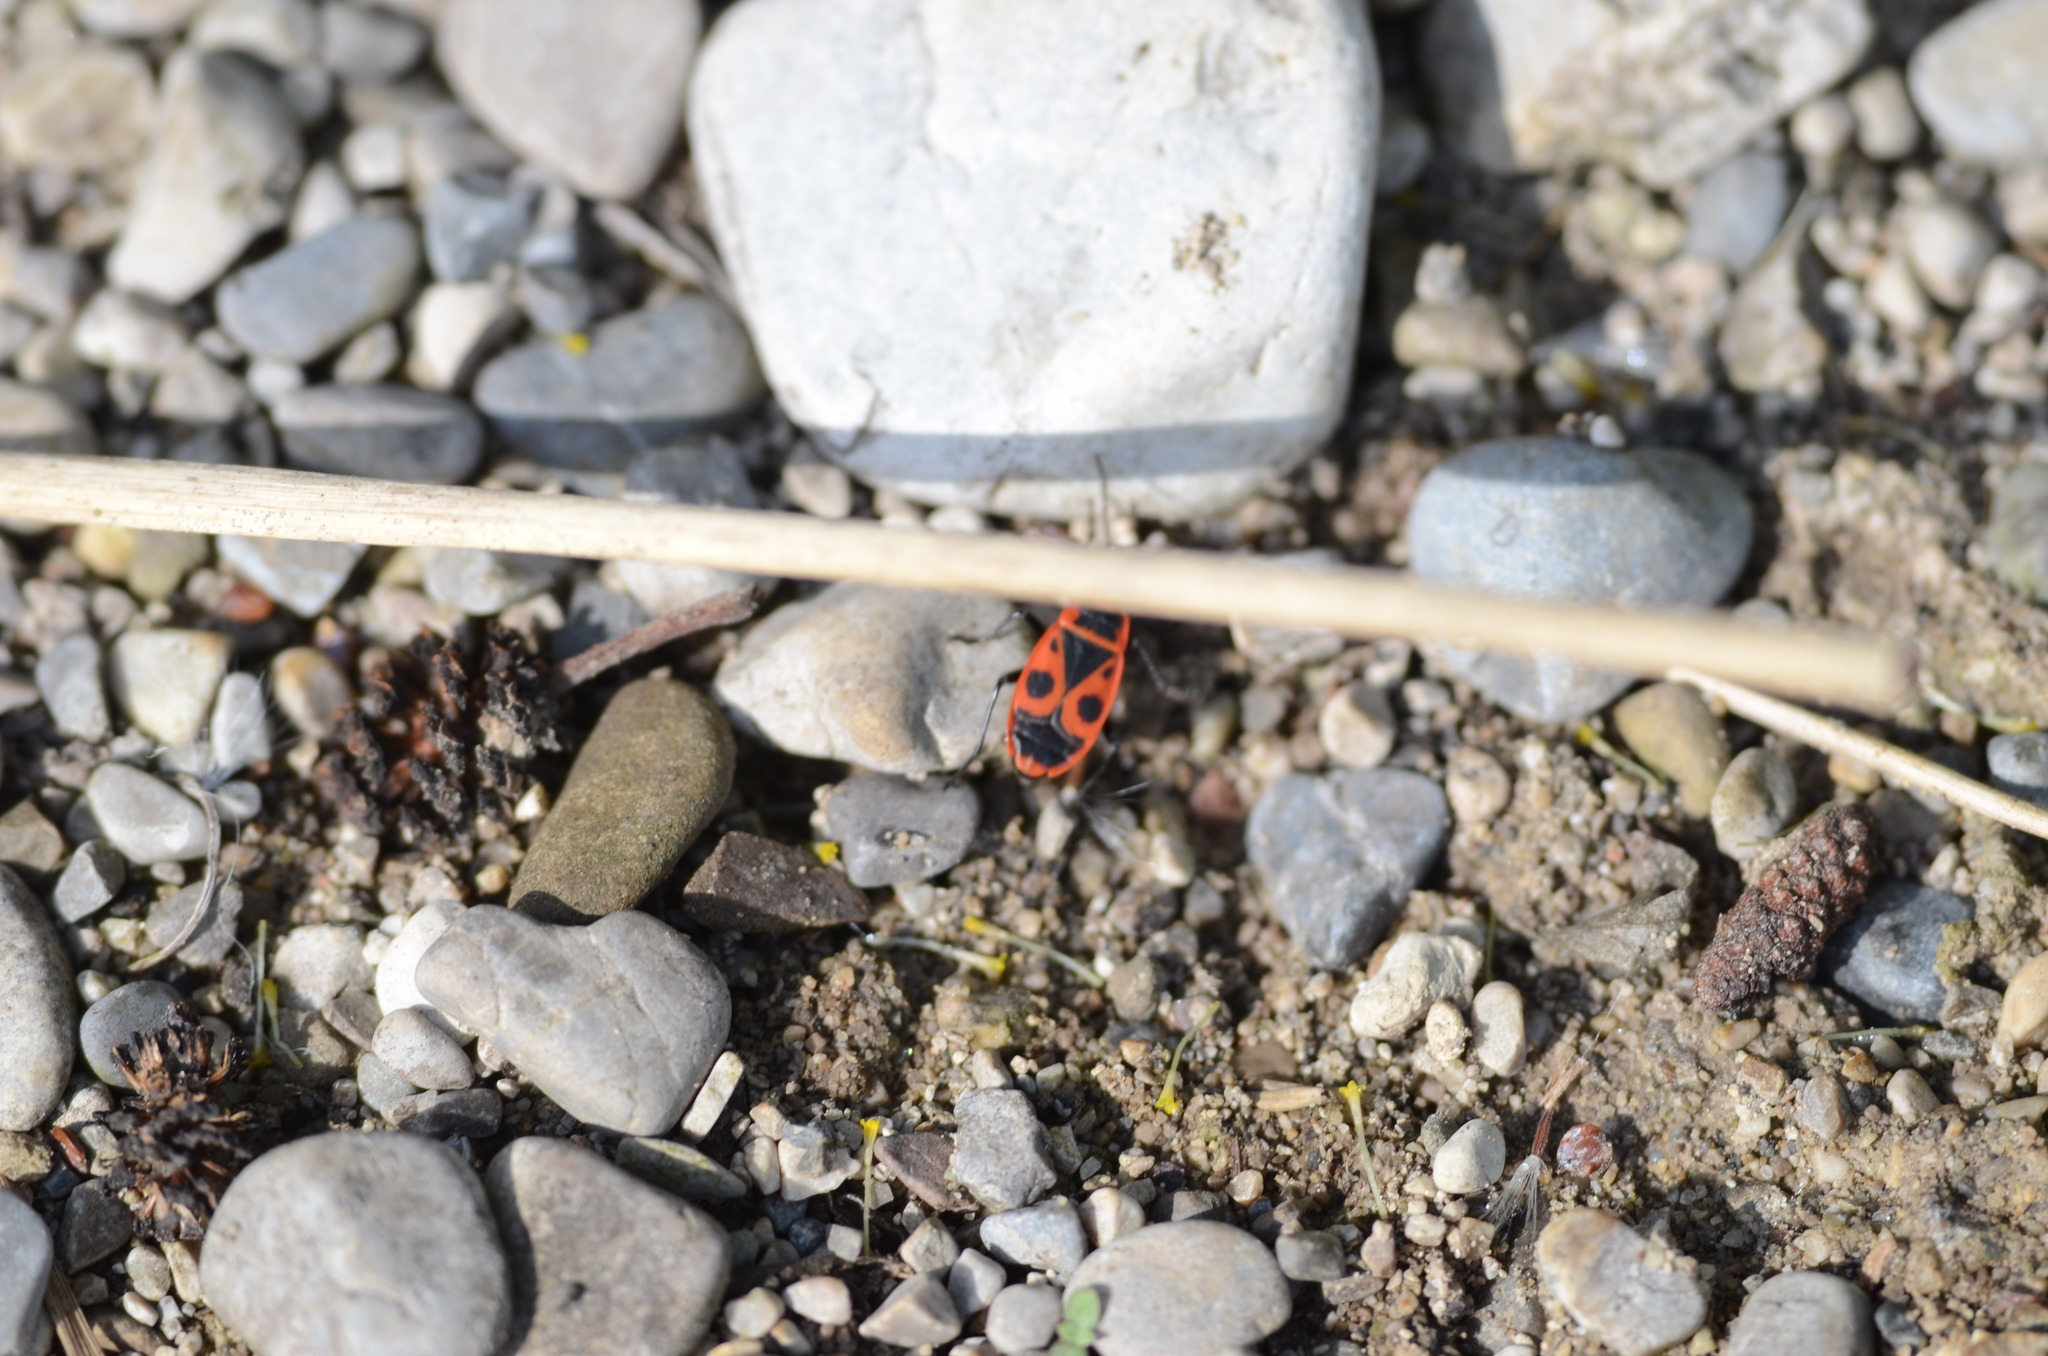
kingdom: Animalia
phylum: Arthropoda
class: Insecta
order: Hemiptera
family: Pyrrhocoridae
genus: Pyrrhocoris
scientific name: Pyrrhocoris apterus
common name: Firebug
